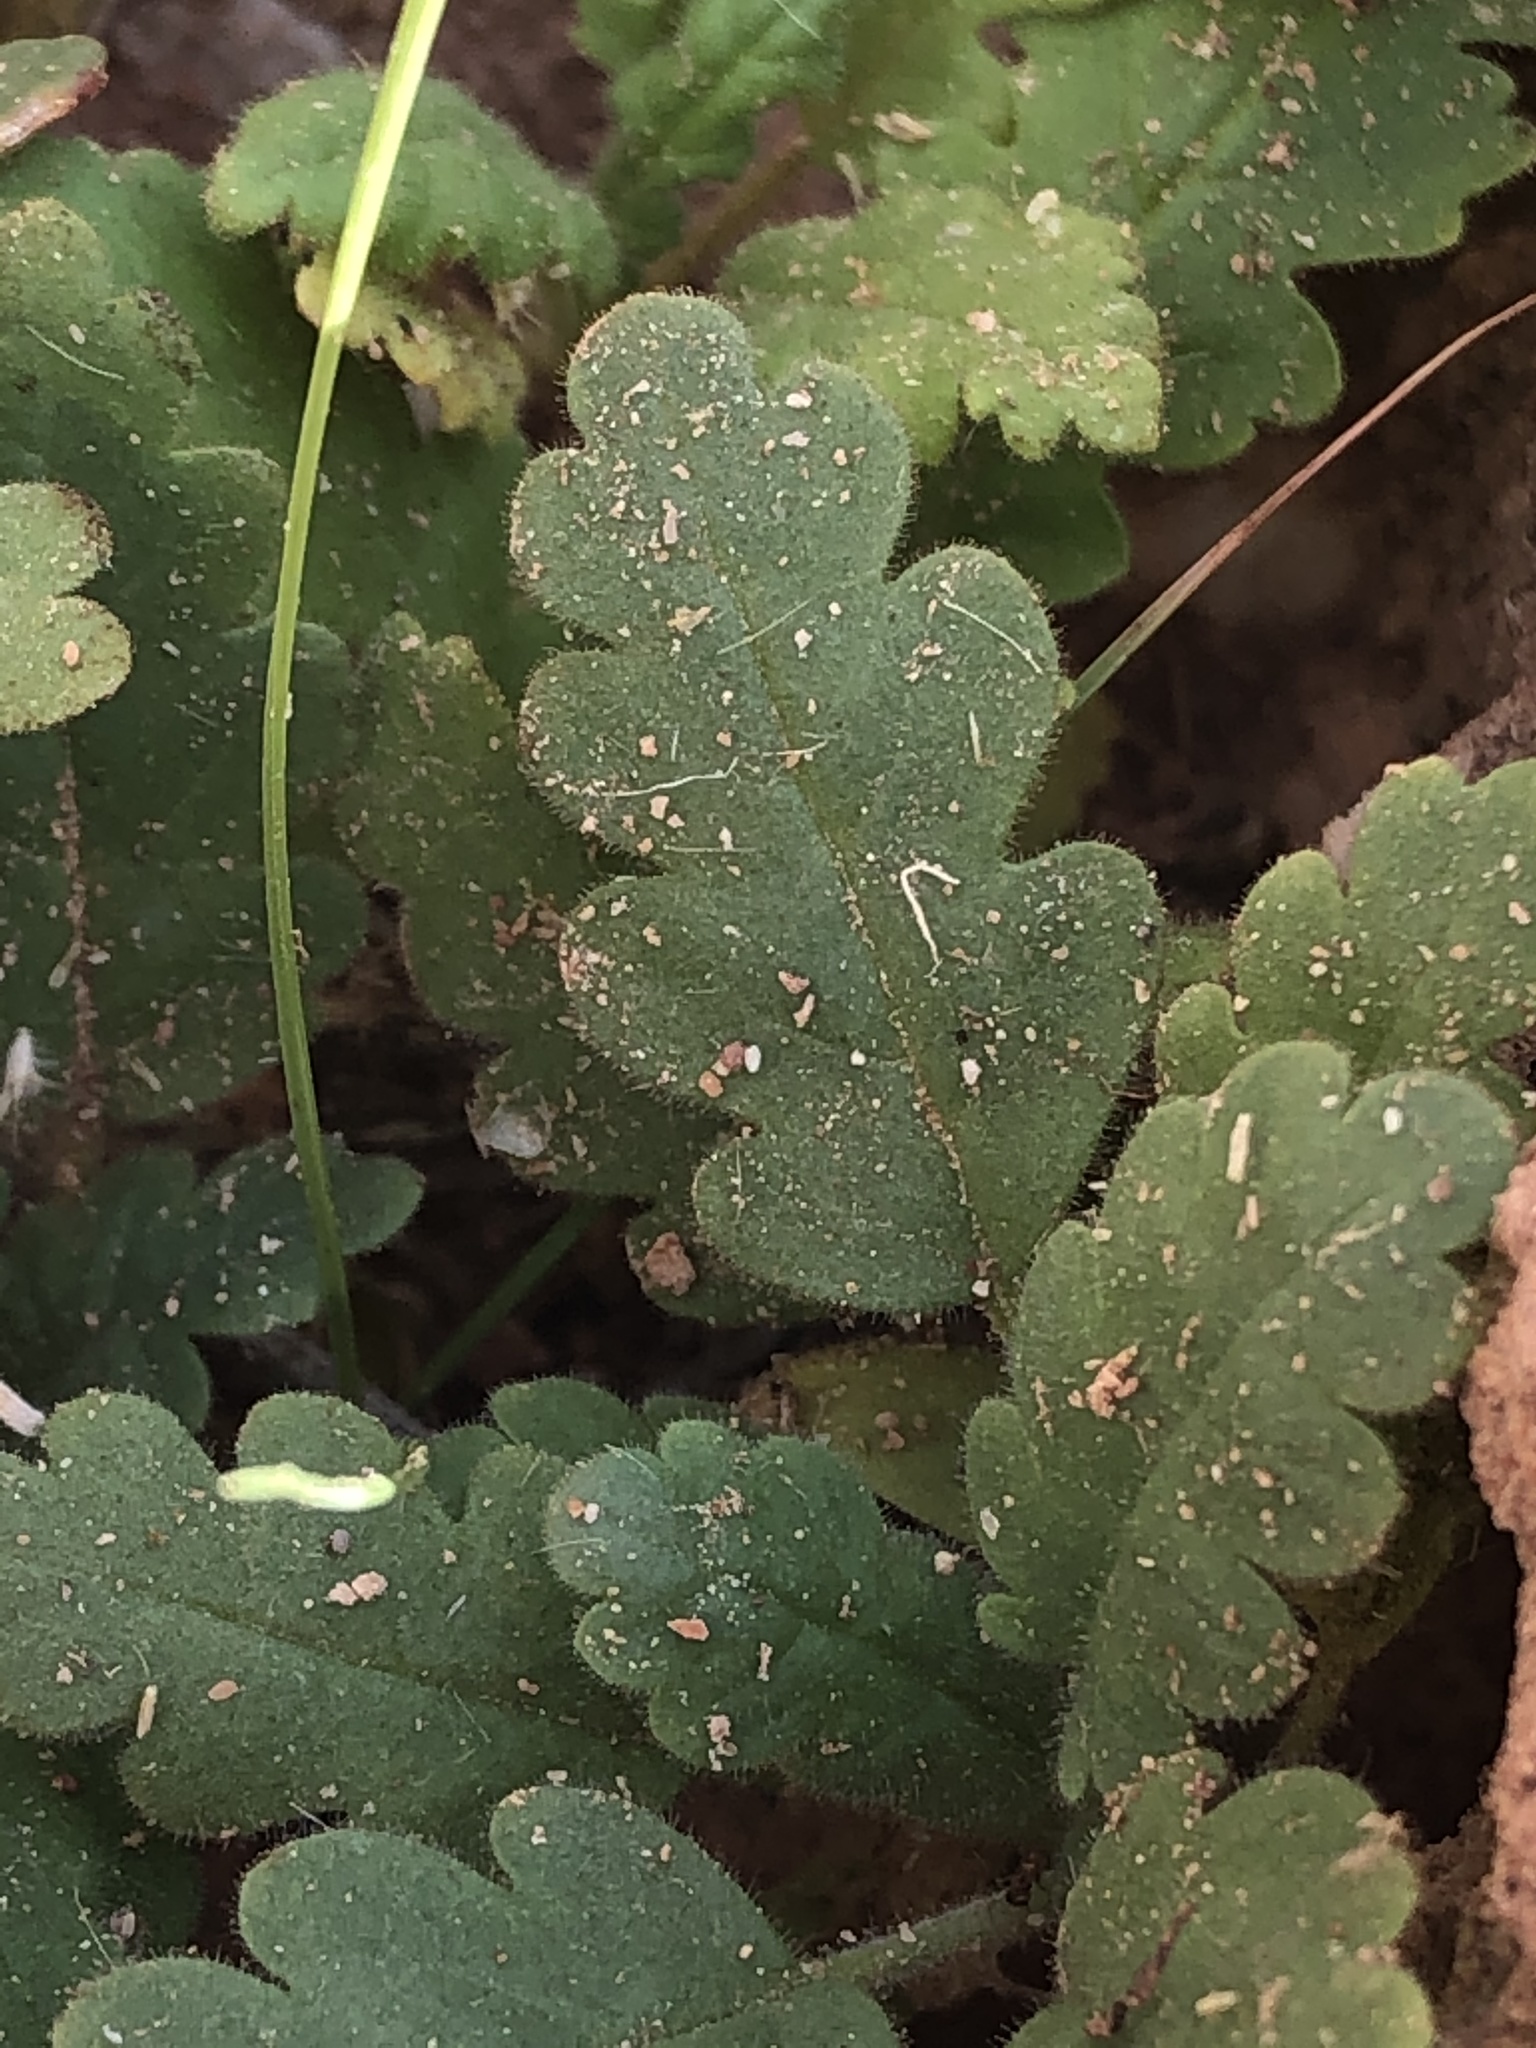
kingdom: Plantae
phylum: Tracheophyta
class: Magnoliopsida
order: Boraginales
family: Hydrophyllaceae
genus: Phacelia
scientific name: Phacelia integrifolia
